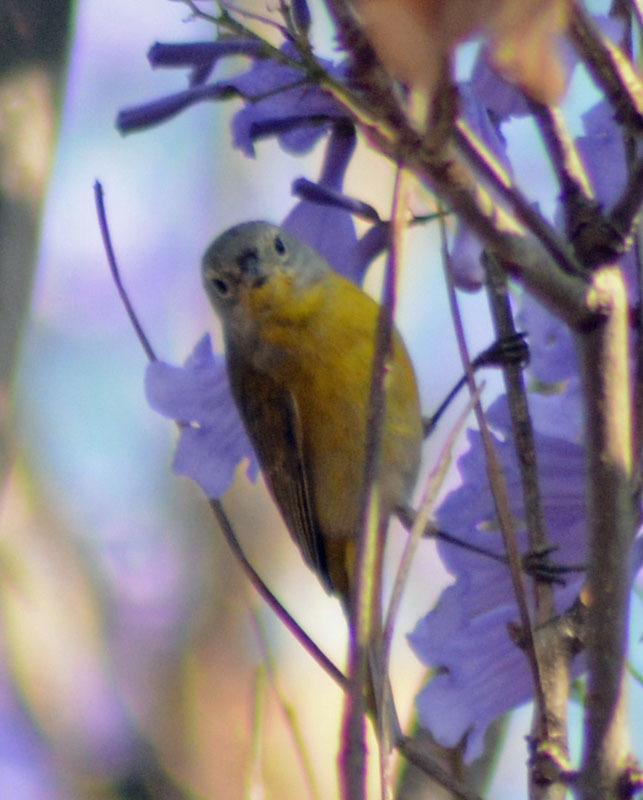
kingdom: Animalia
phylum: Chordata
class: Aves
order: Passeriformes
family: Parulidae
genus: Leiothlypis
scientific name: Leiothlypis ruficapilla
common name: Nashville warbler
